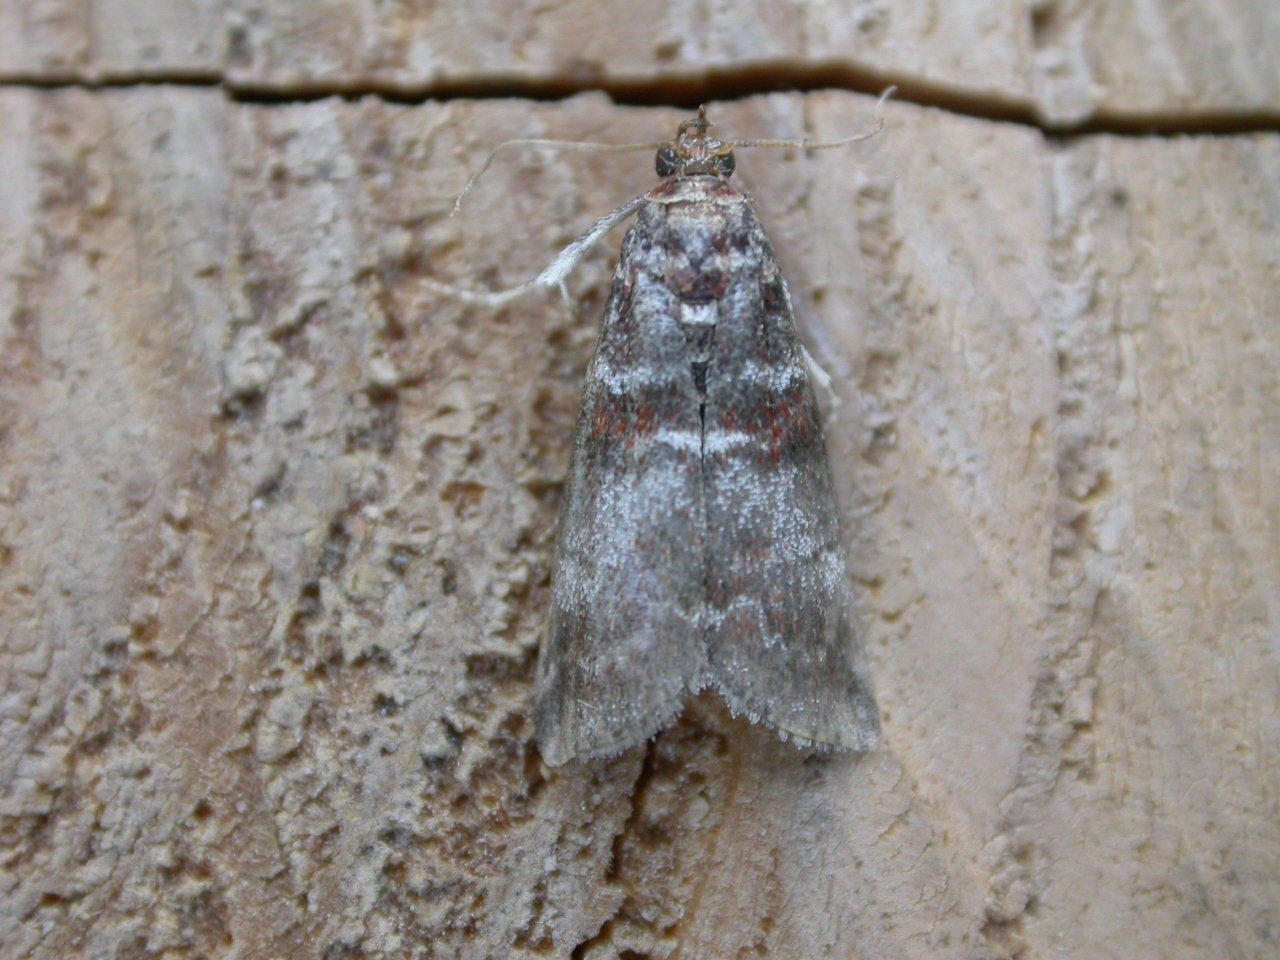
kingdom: Animalia
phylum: Arthropoda
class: Insecta
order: Lepidoptera
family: Pyralidae
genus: Acrobasis
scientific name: Acrobasis advenella
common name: Grey knot-horn
